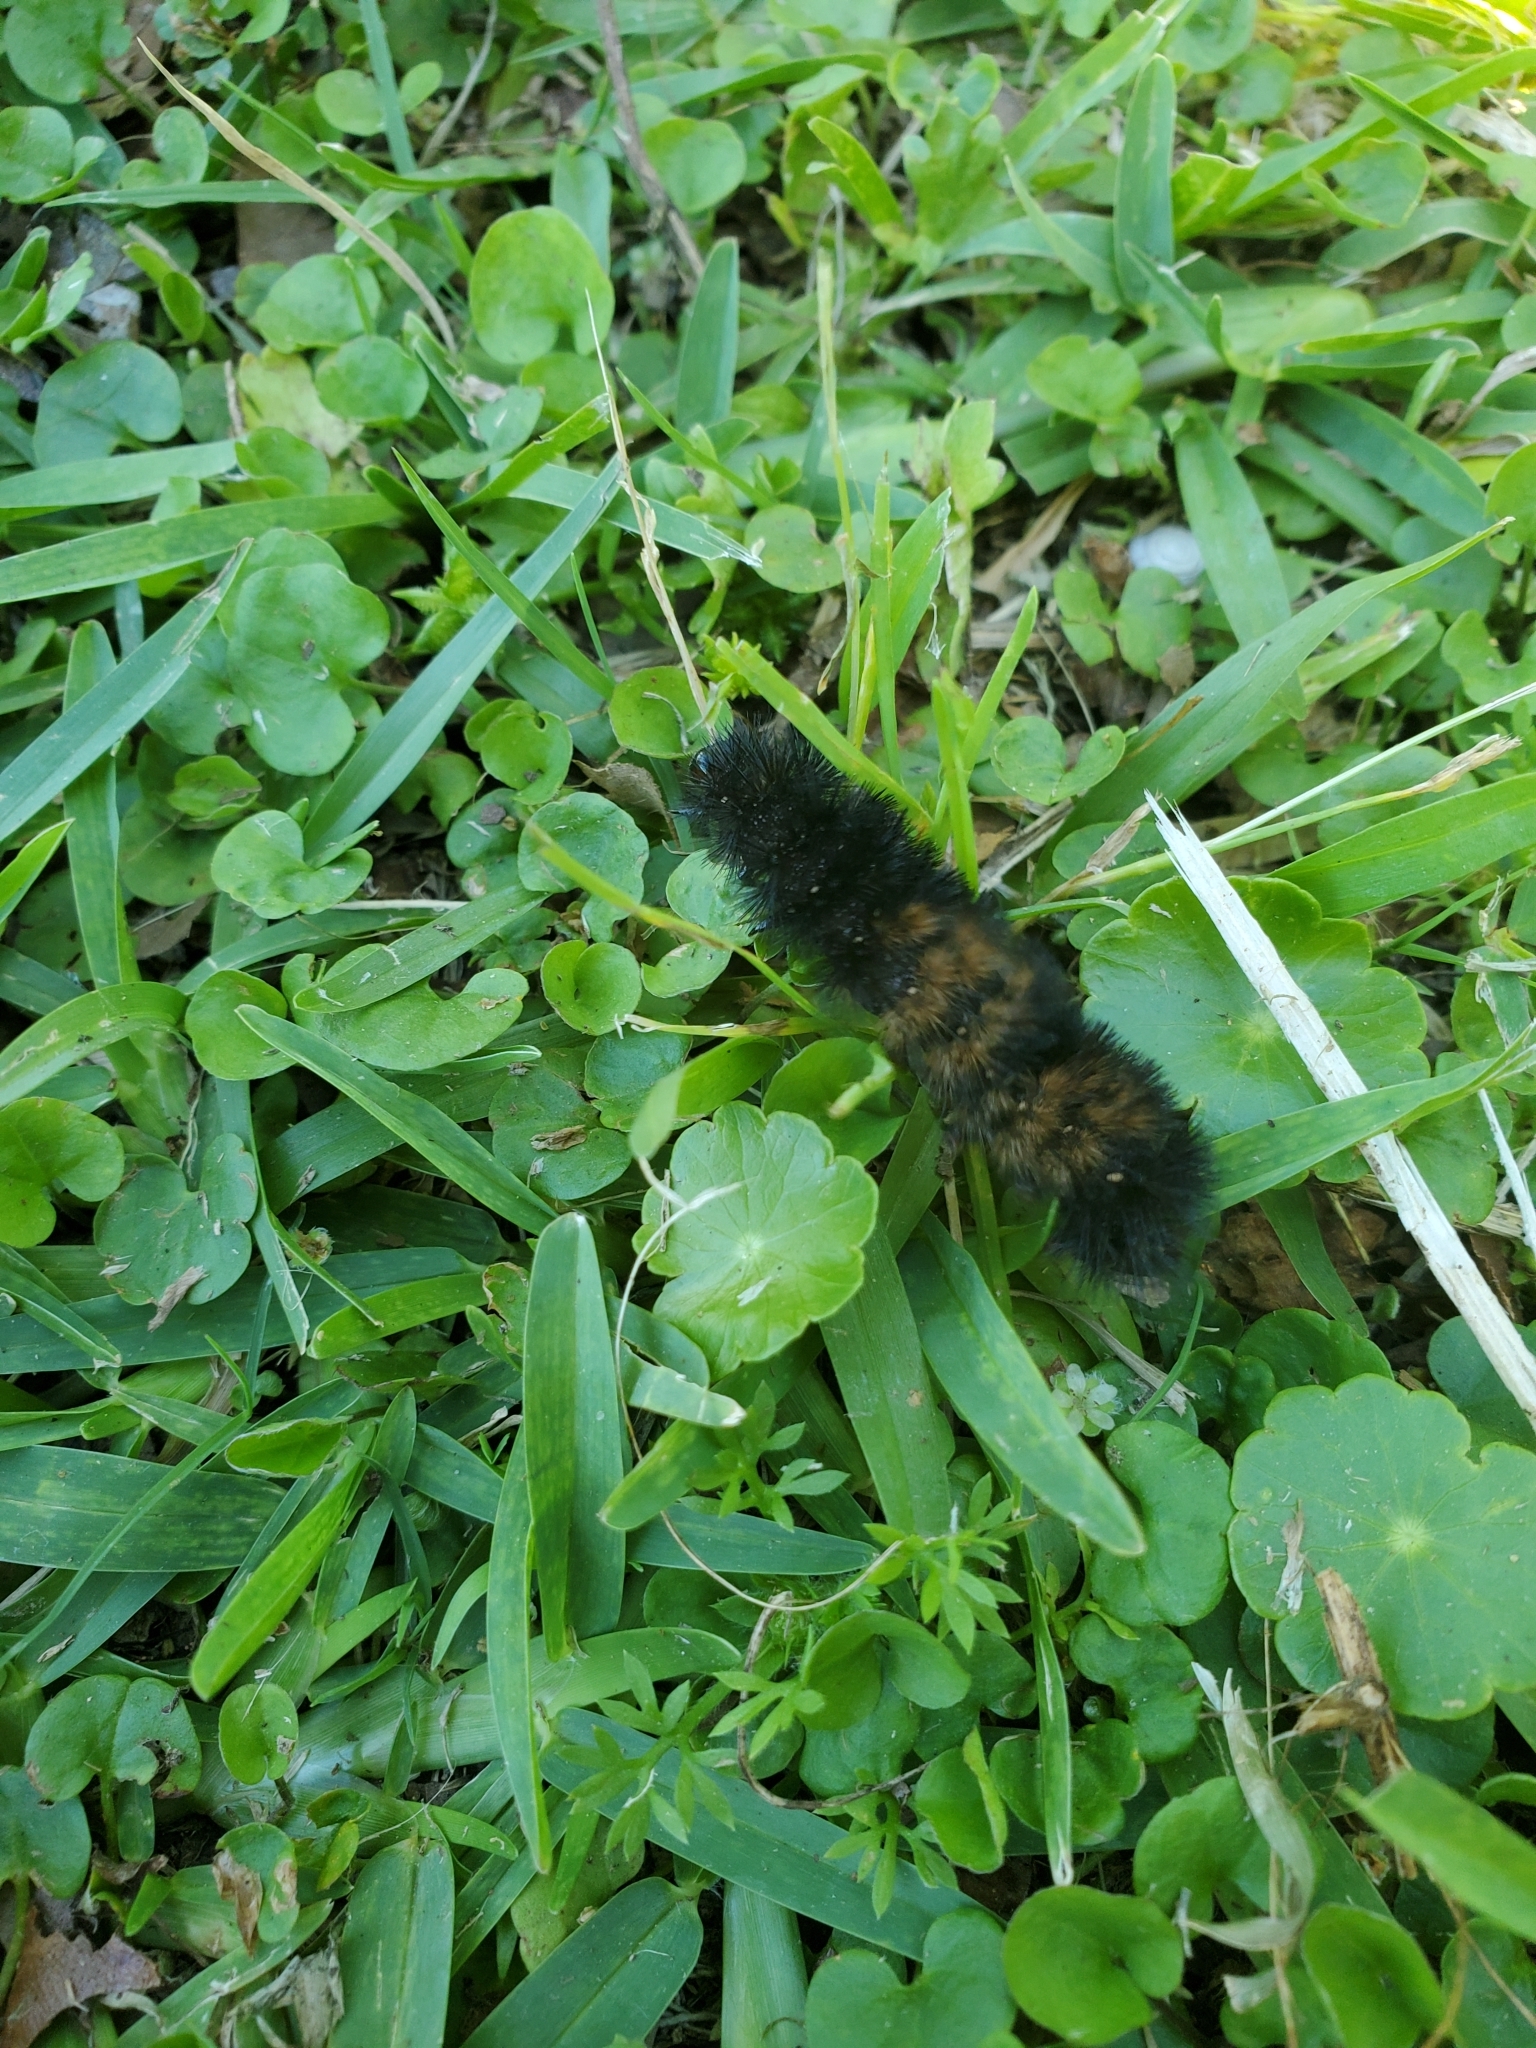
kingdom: Animalia
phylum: Arthropoda
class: Insecta
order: Lepidoptera
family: Erebidae
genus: Pyrrharctia
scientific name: Pyrrharctia isabella
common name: Isabella tiger moth
